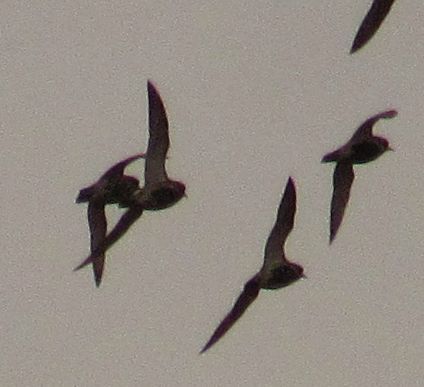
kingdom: Animalia
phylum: Chordata
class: Aves
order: Charadriiformes
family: Charadriidae
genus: Pluvialis
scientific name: Pluvialis apricaria
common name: European golden plover
